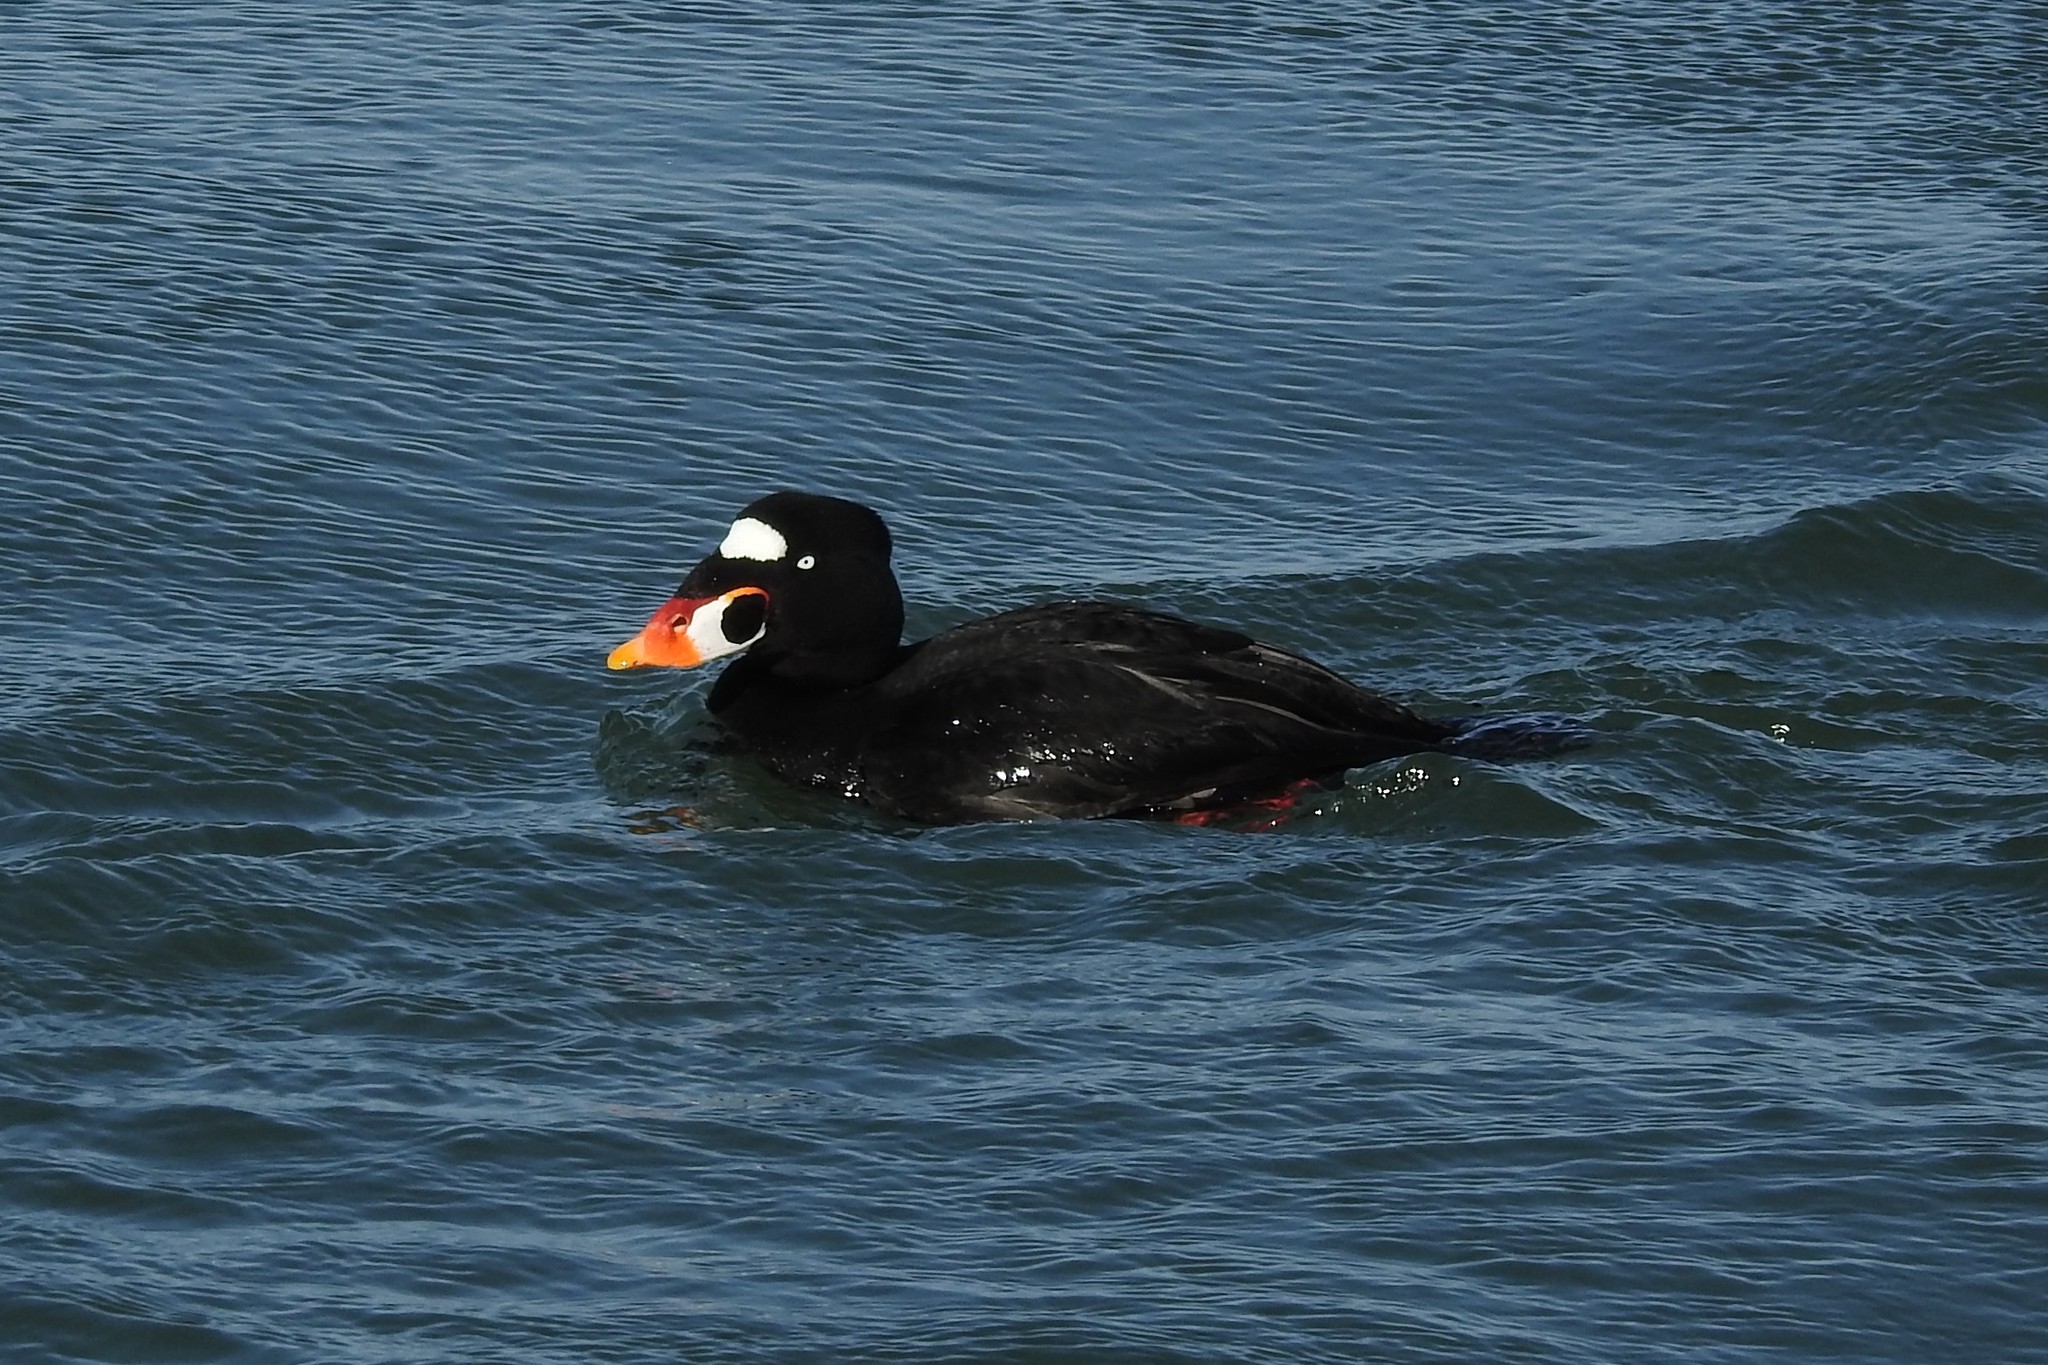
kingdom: Animalia
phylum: Chordata
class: Aves
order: Anseriformes
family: Anatidae
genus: Melanitta
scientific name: Melanitta perspicillata
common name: Surf scoter
